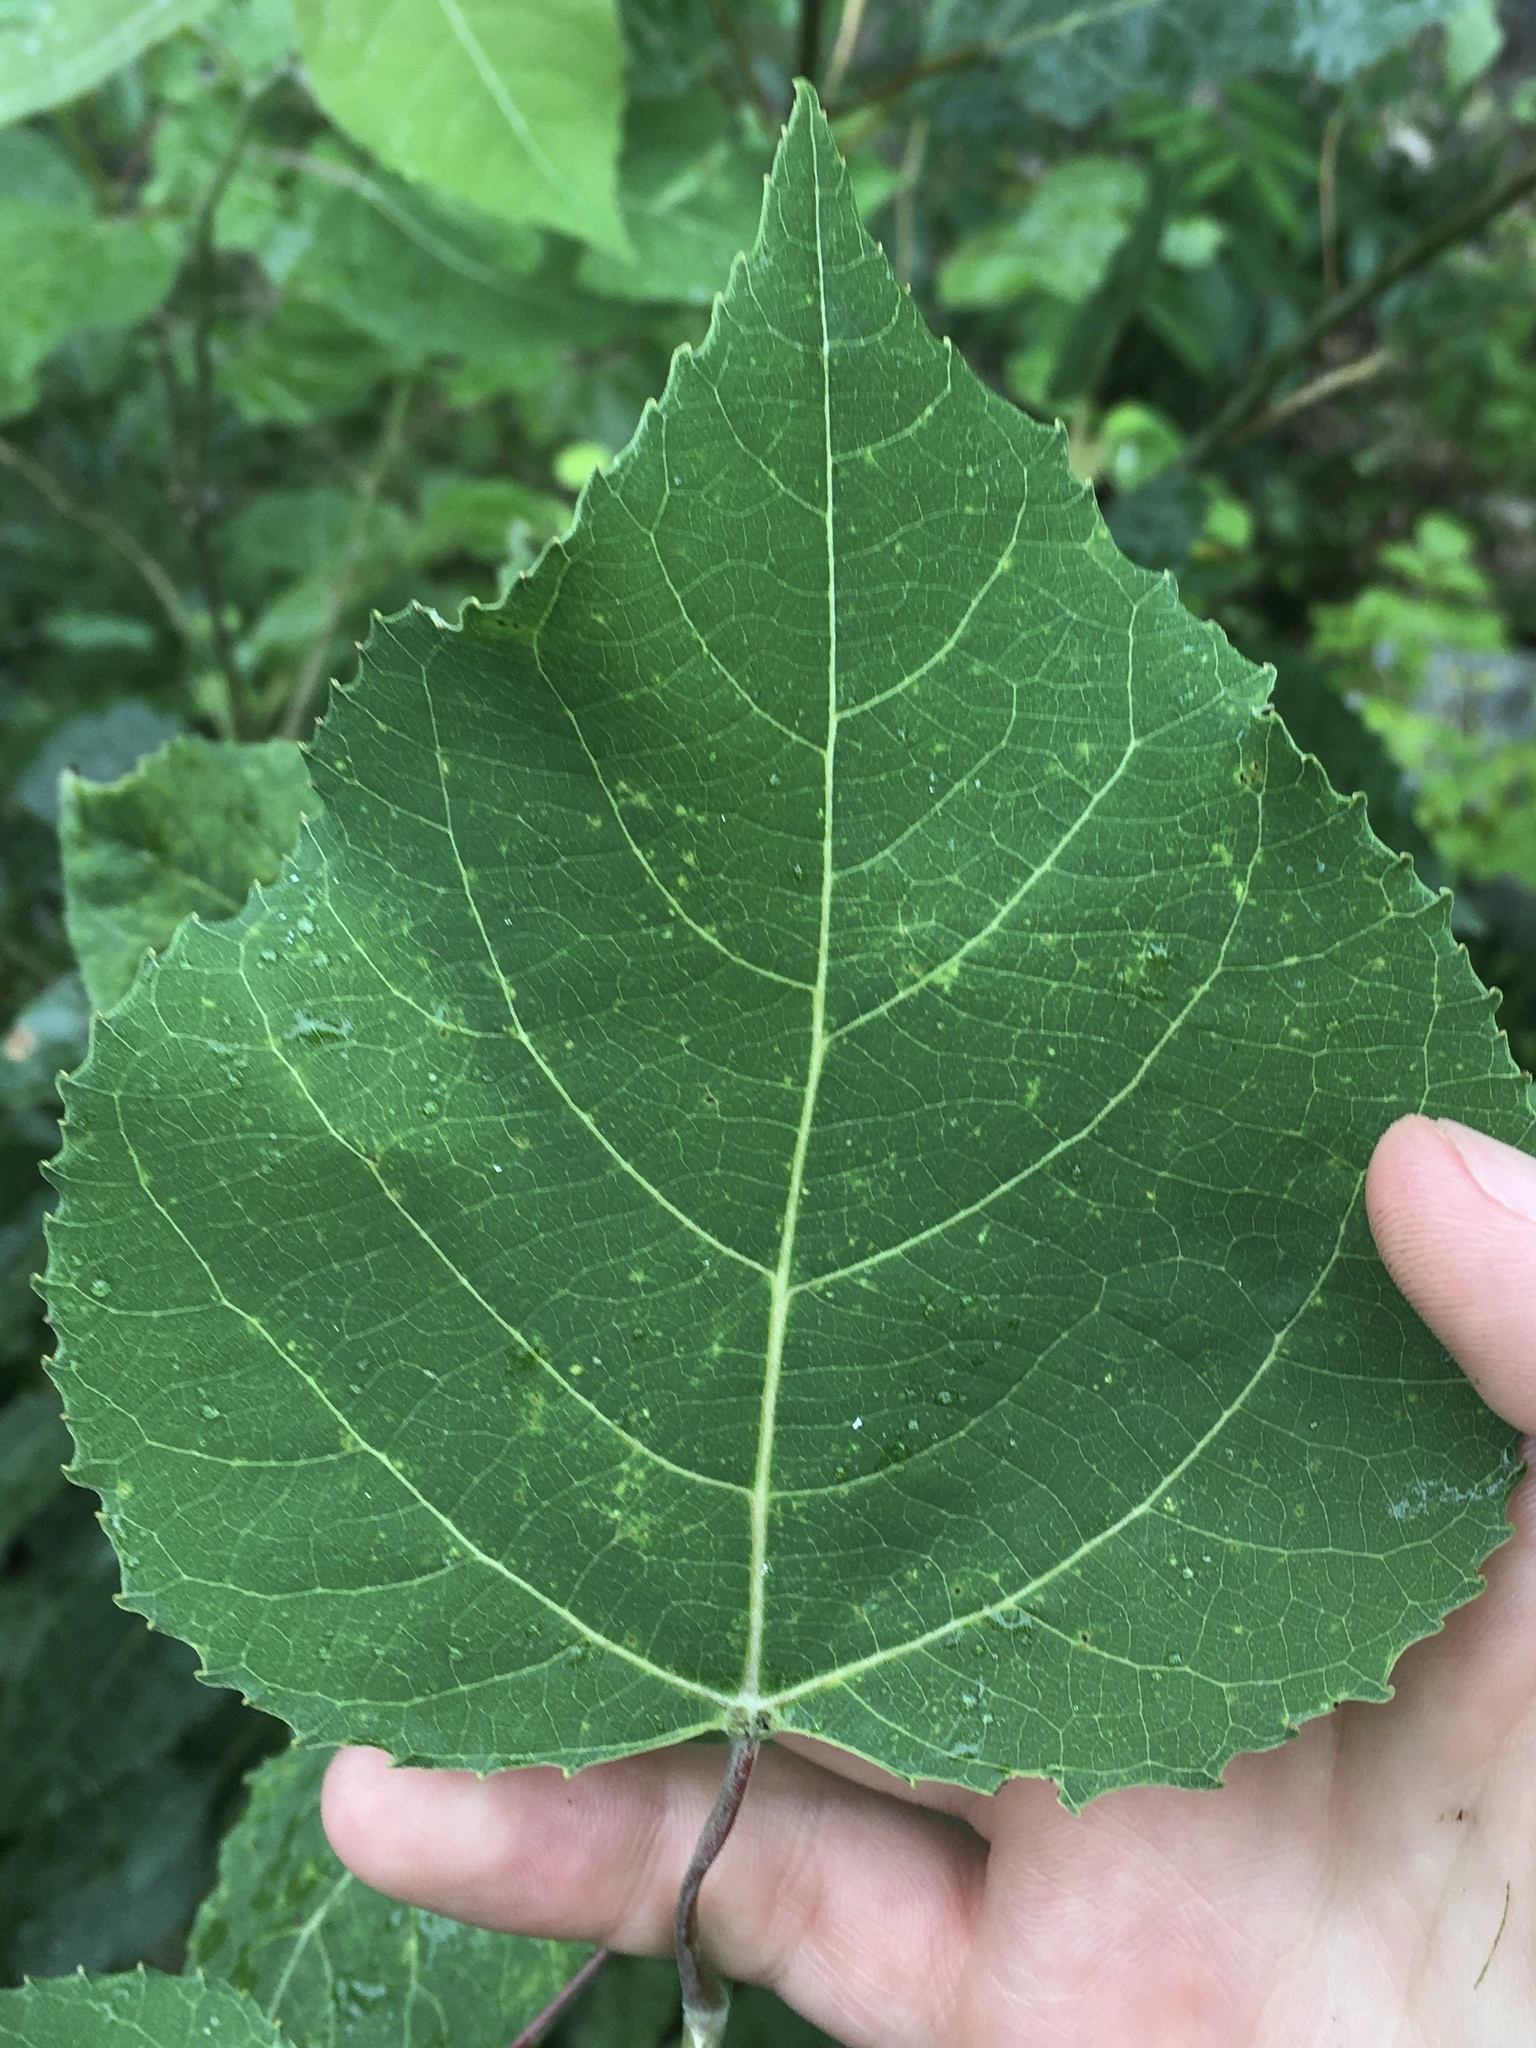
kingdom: Plantae
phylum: Tracheophyta
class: Magnoliopsida
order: Malpighiales
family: Salicaceae
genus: Populus
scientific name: Populus grandidentata
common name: Bigtooth aspen
